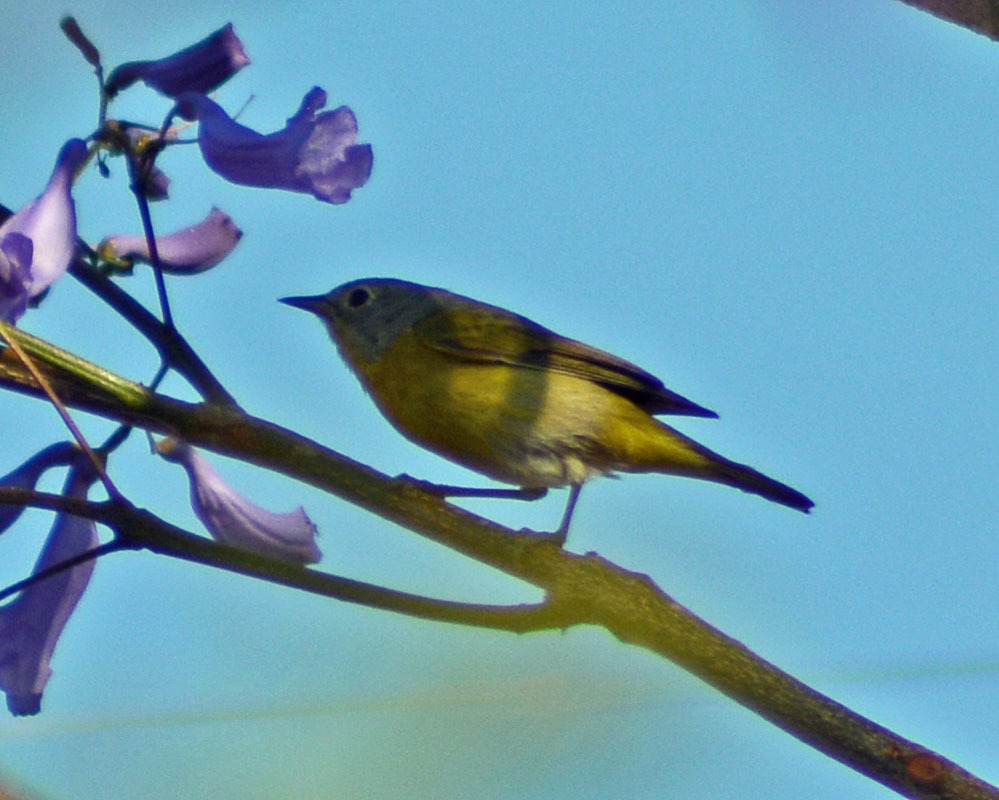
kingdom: Animalia
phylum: Chordata
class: Aves
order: Passeriformes
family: Parulidae
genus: Leiothlypis
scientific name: Leiothlypis ruficapilla
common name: Nashville warbler
